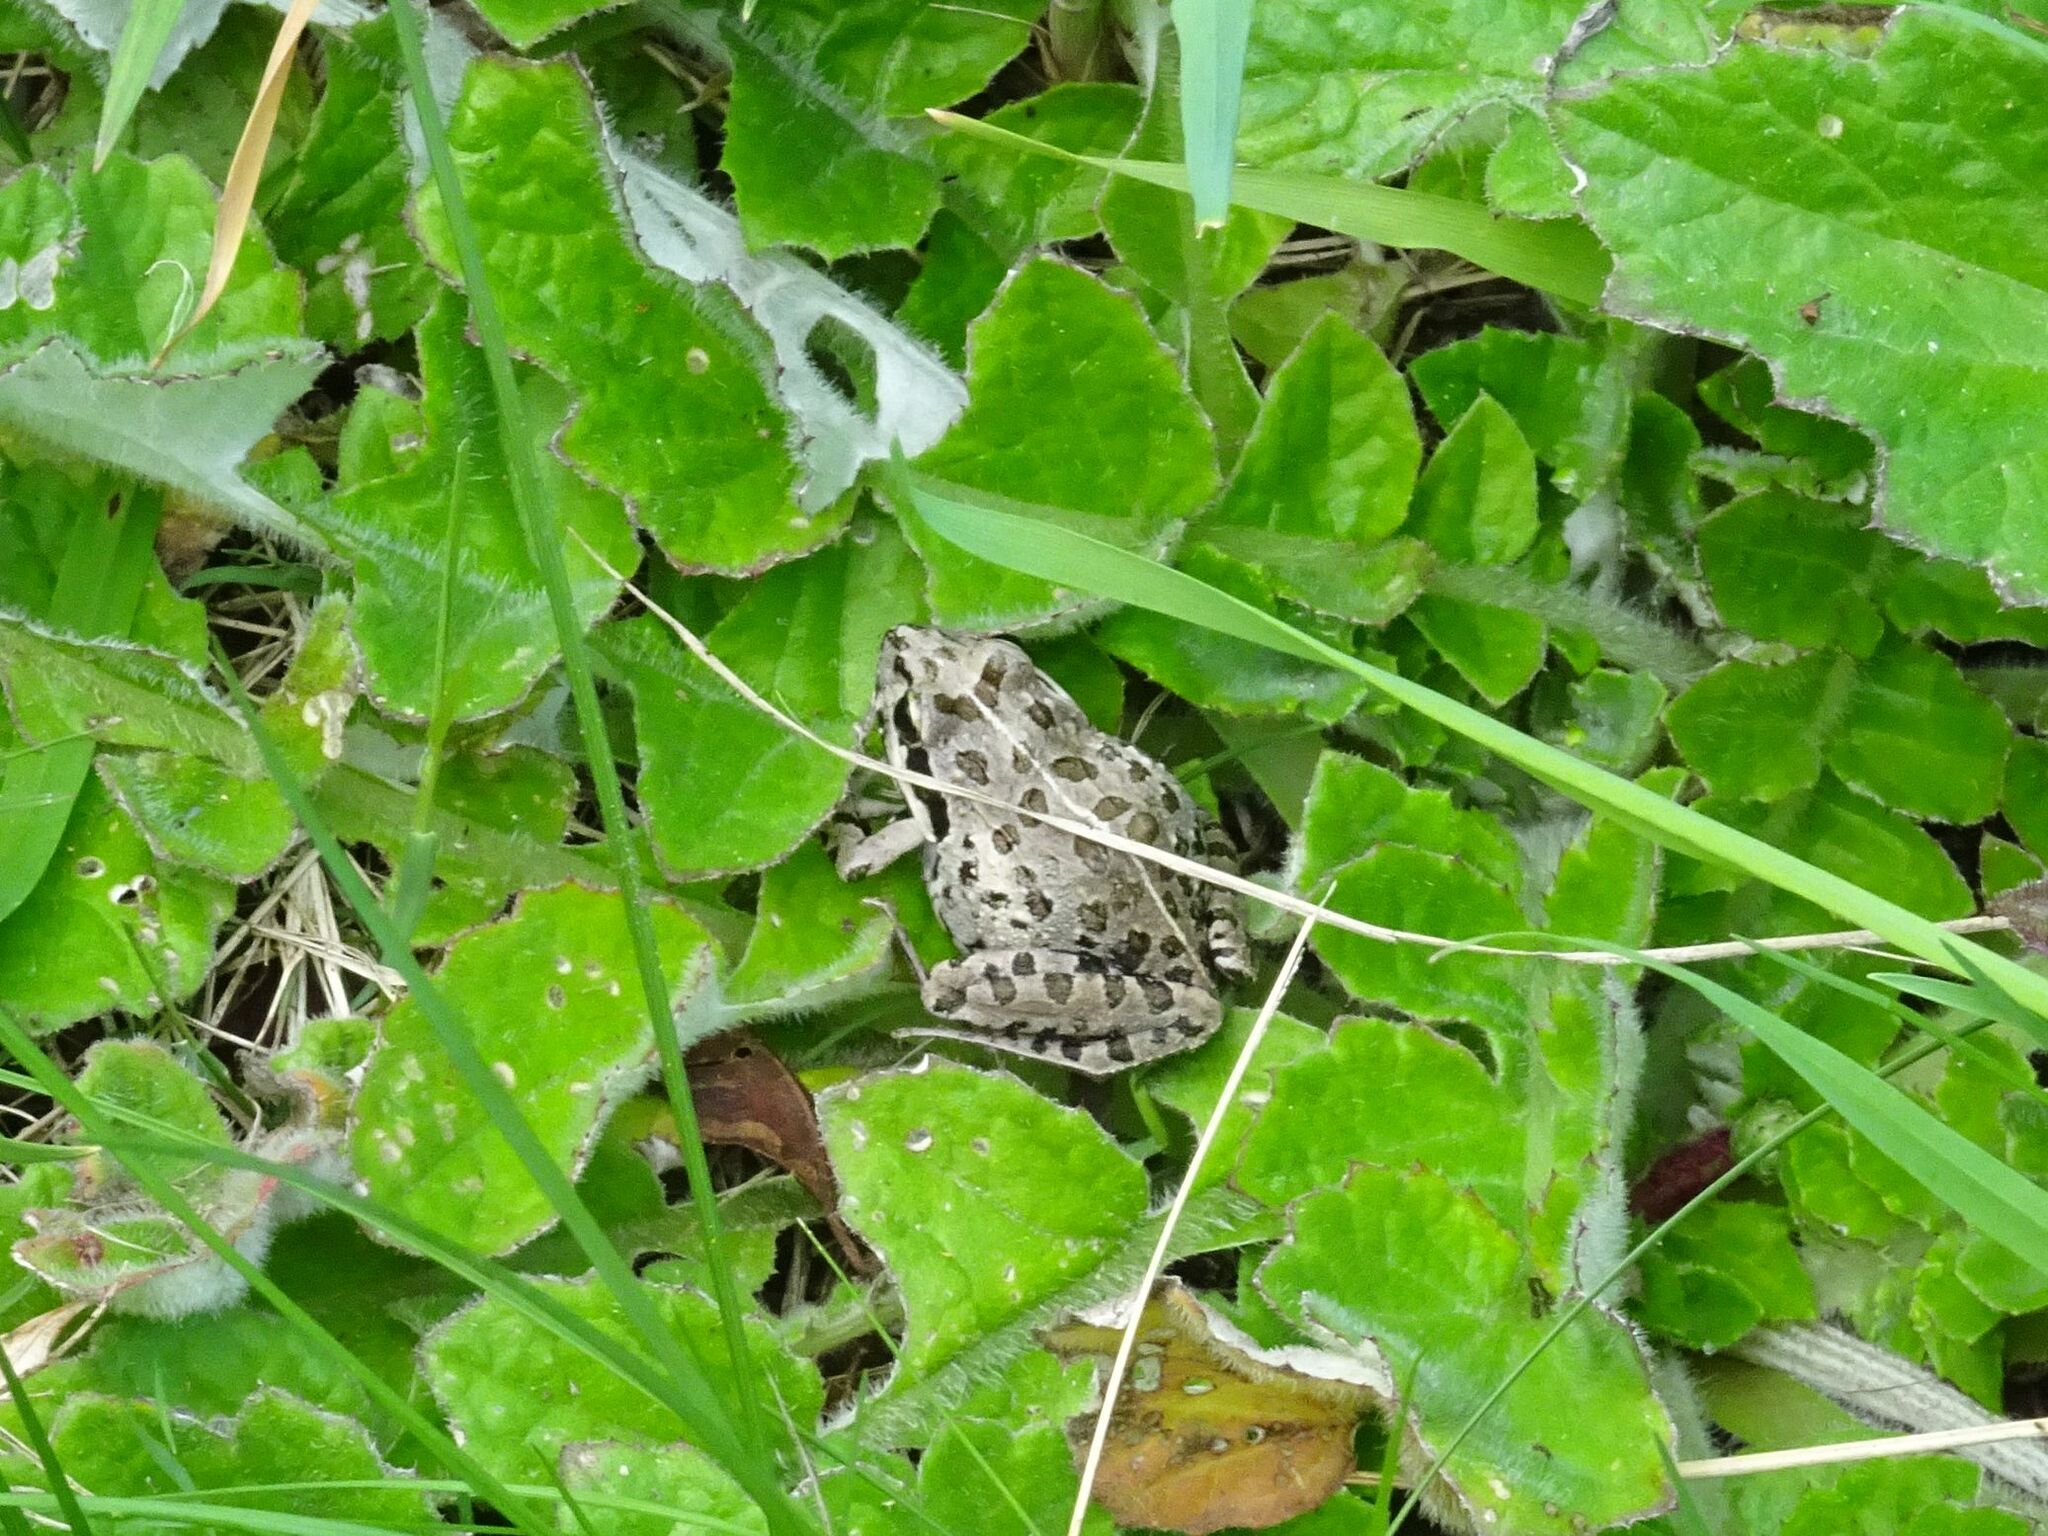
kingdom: Animalia
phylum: Chordata
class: Amphibia
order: Anura
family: Pyxicephalidae
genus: Strongylopus
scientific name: Strongylopus grayii
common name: Gray's stream frog
